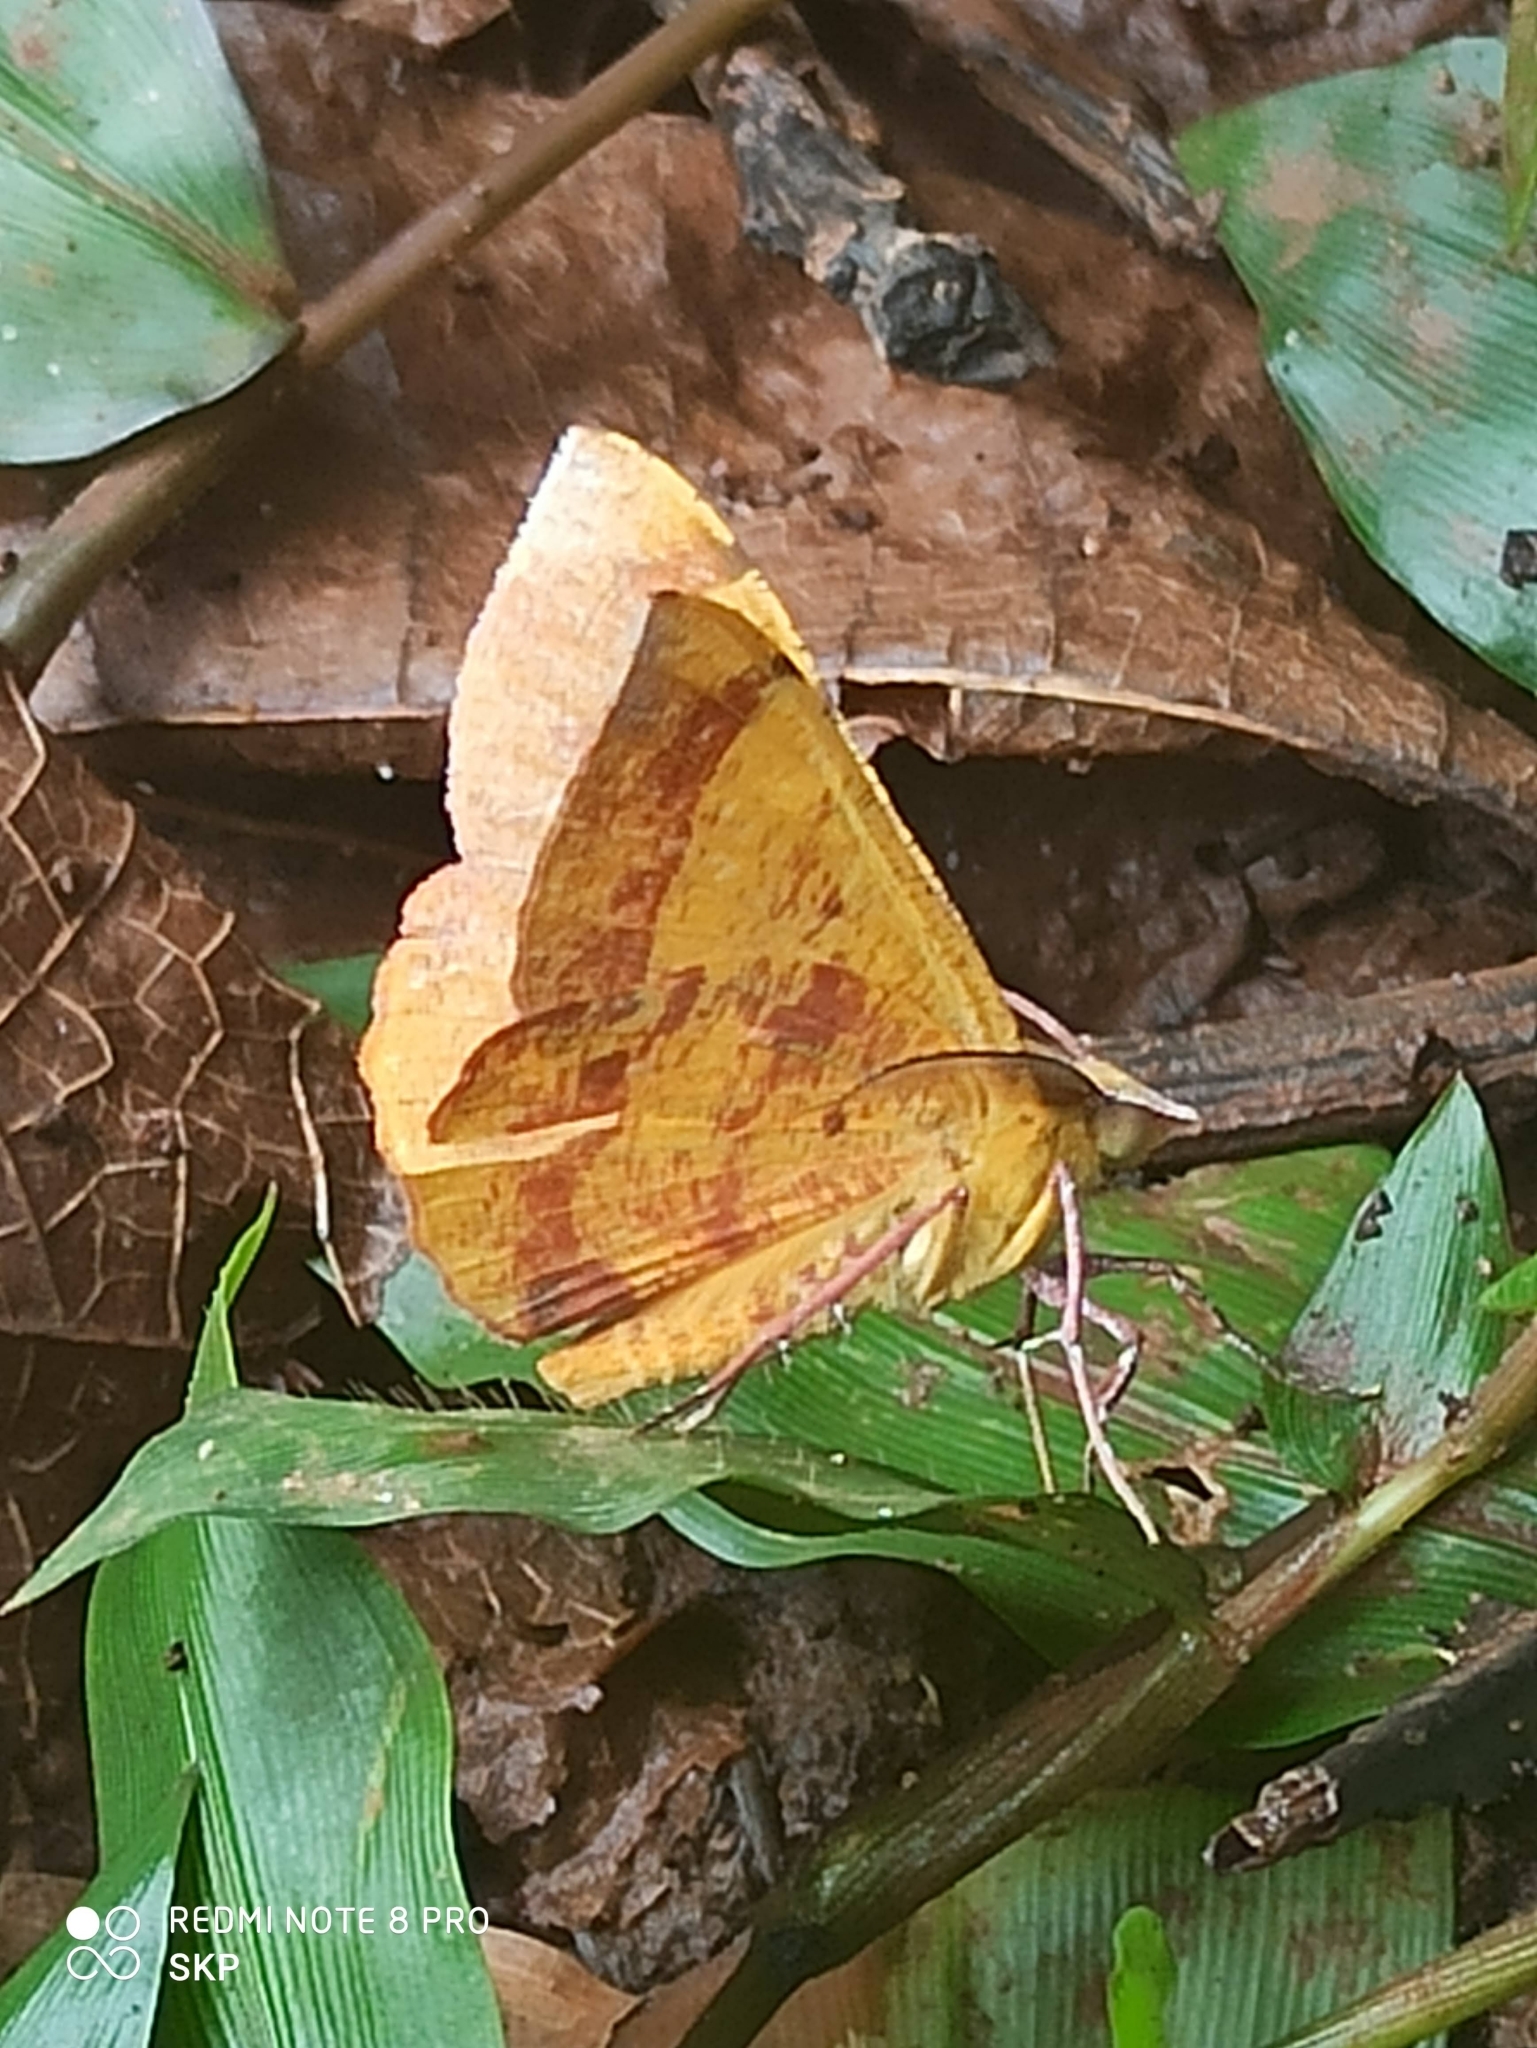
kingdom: Animalia
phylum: Arthropoda
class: Insecta
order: Lepidoptera
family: Geometridae
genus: Hyperythra
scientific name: Hyperythra lutea
